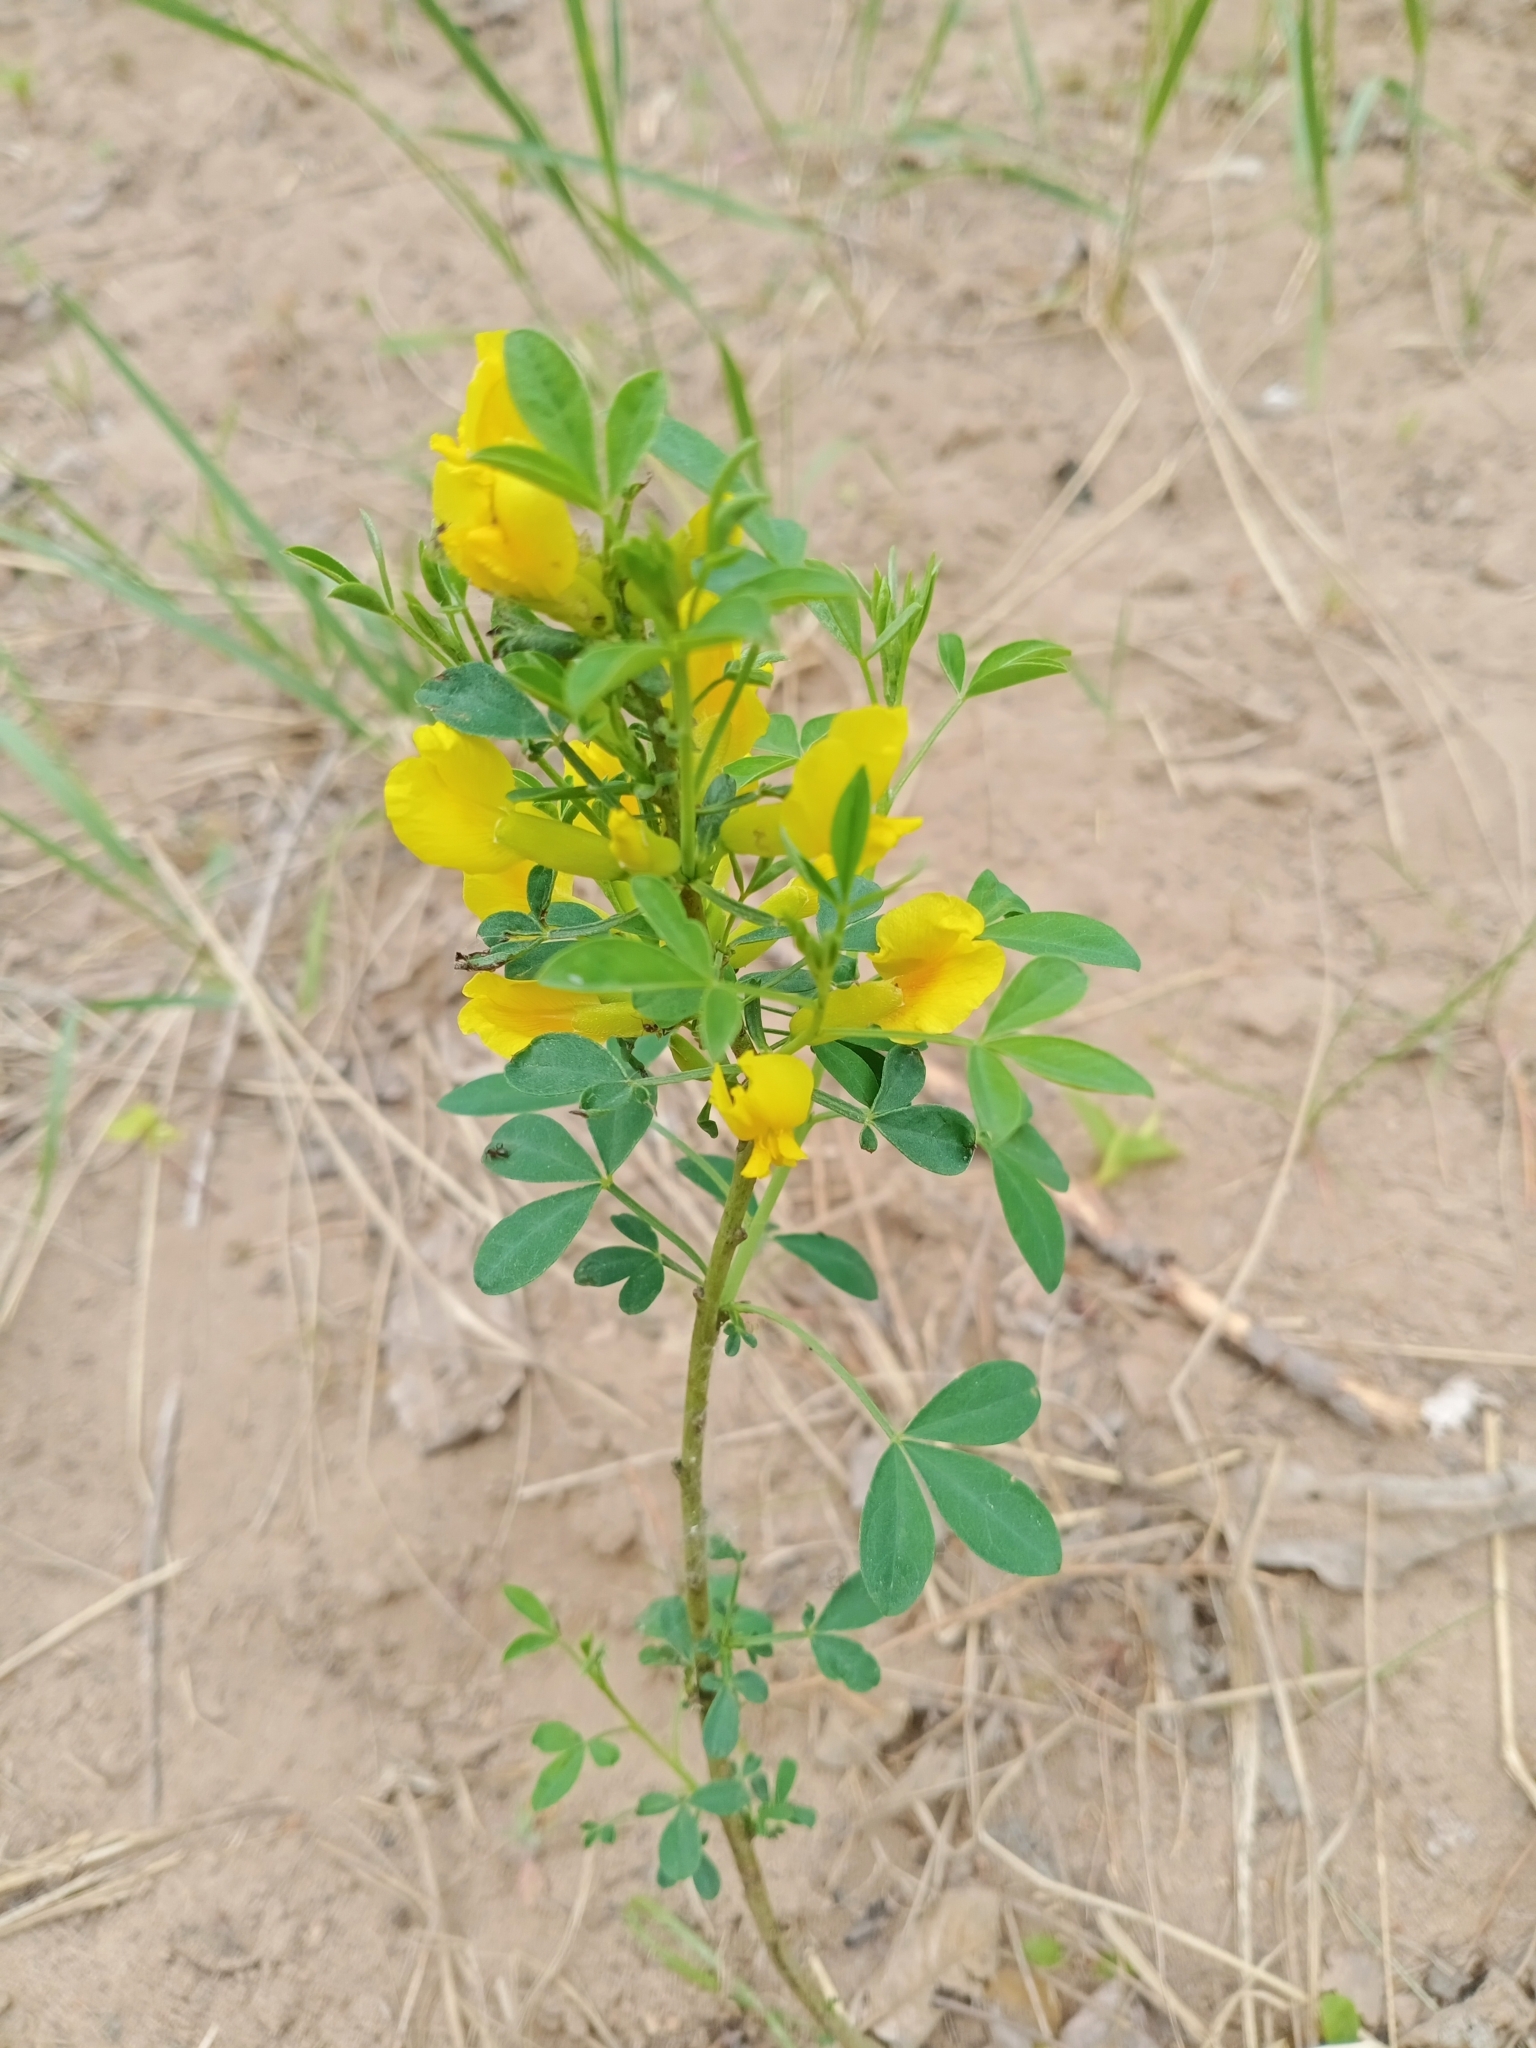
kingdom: Plantae
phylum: Tracheophyta
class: Magnoliopsida
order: Fabales
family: Fabaceae
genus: Chamaecytisus
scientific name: Chamaecytisus ruthenicus
